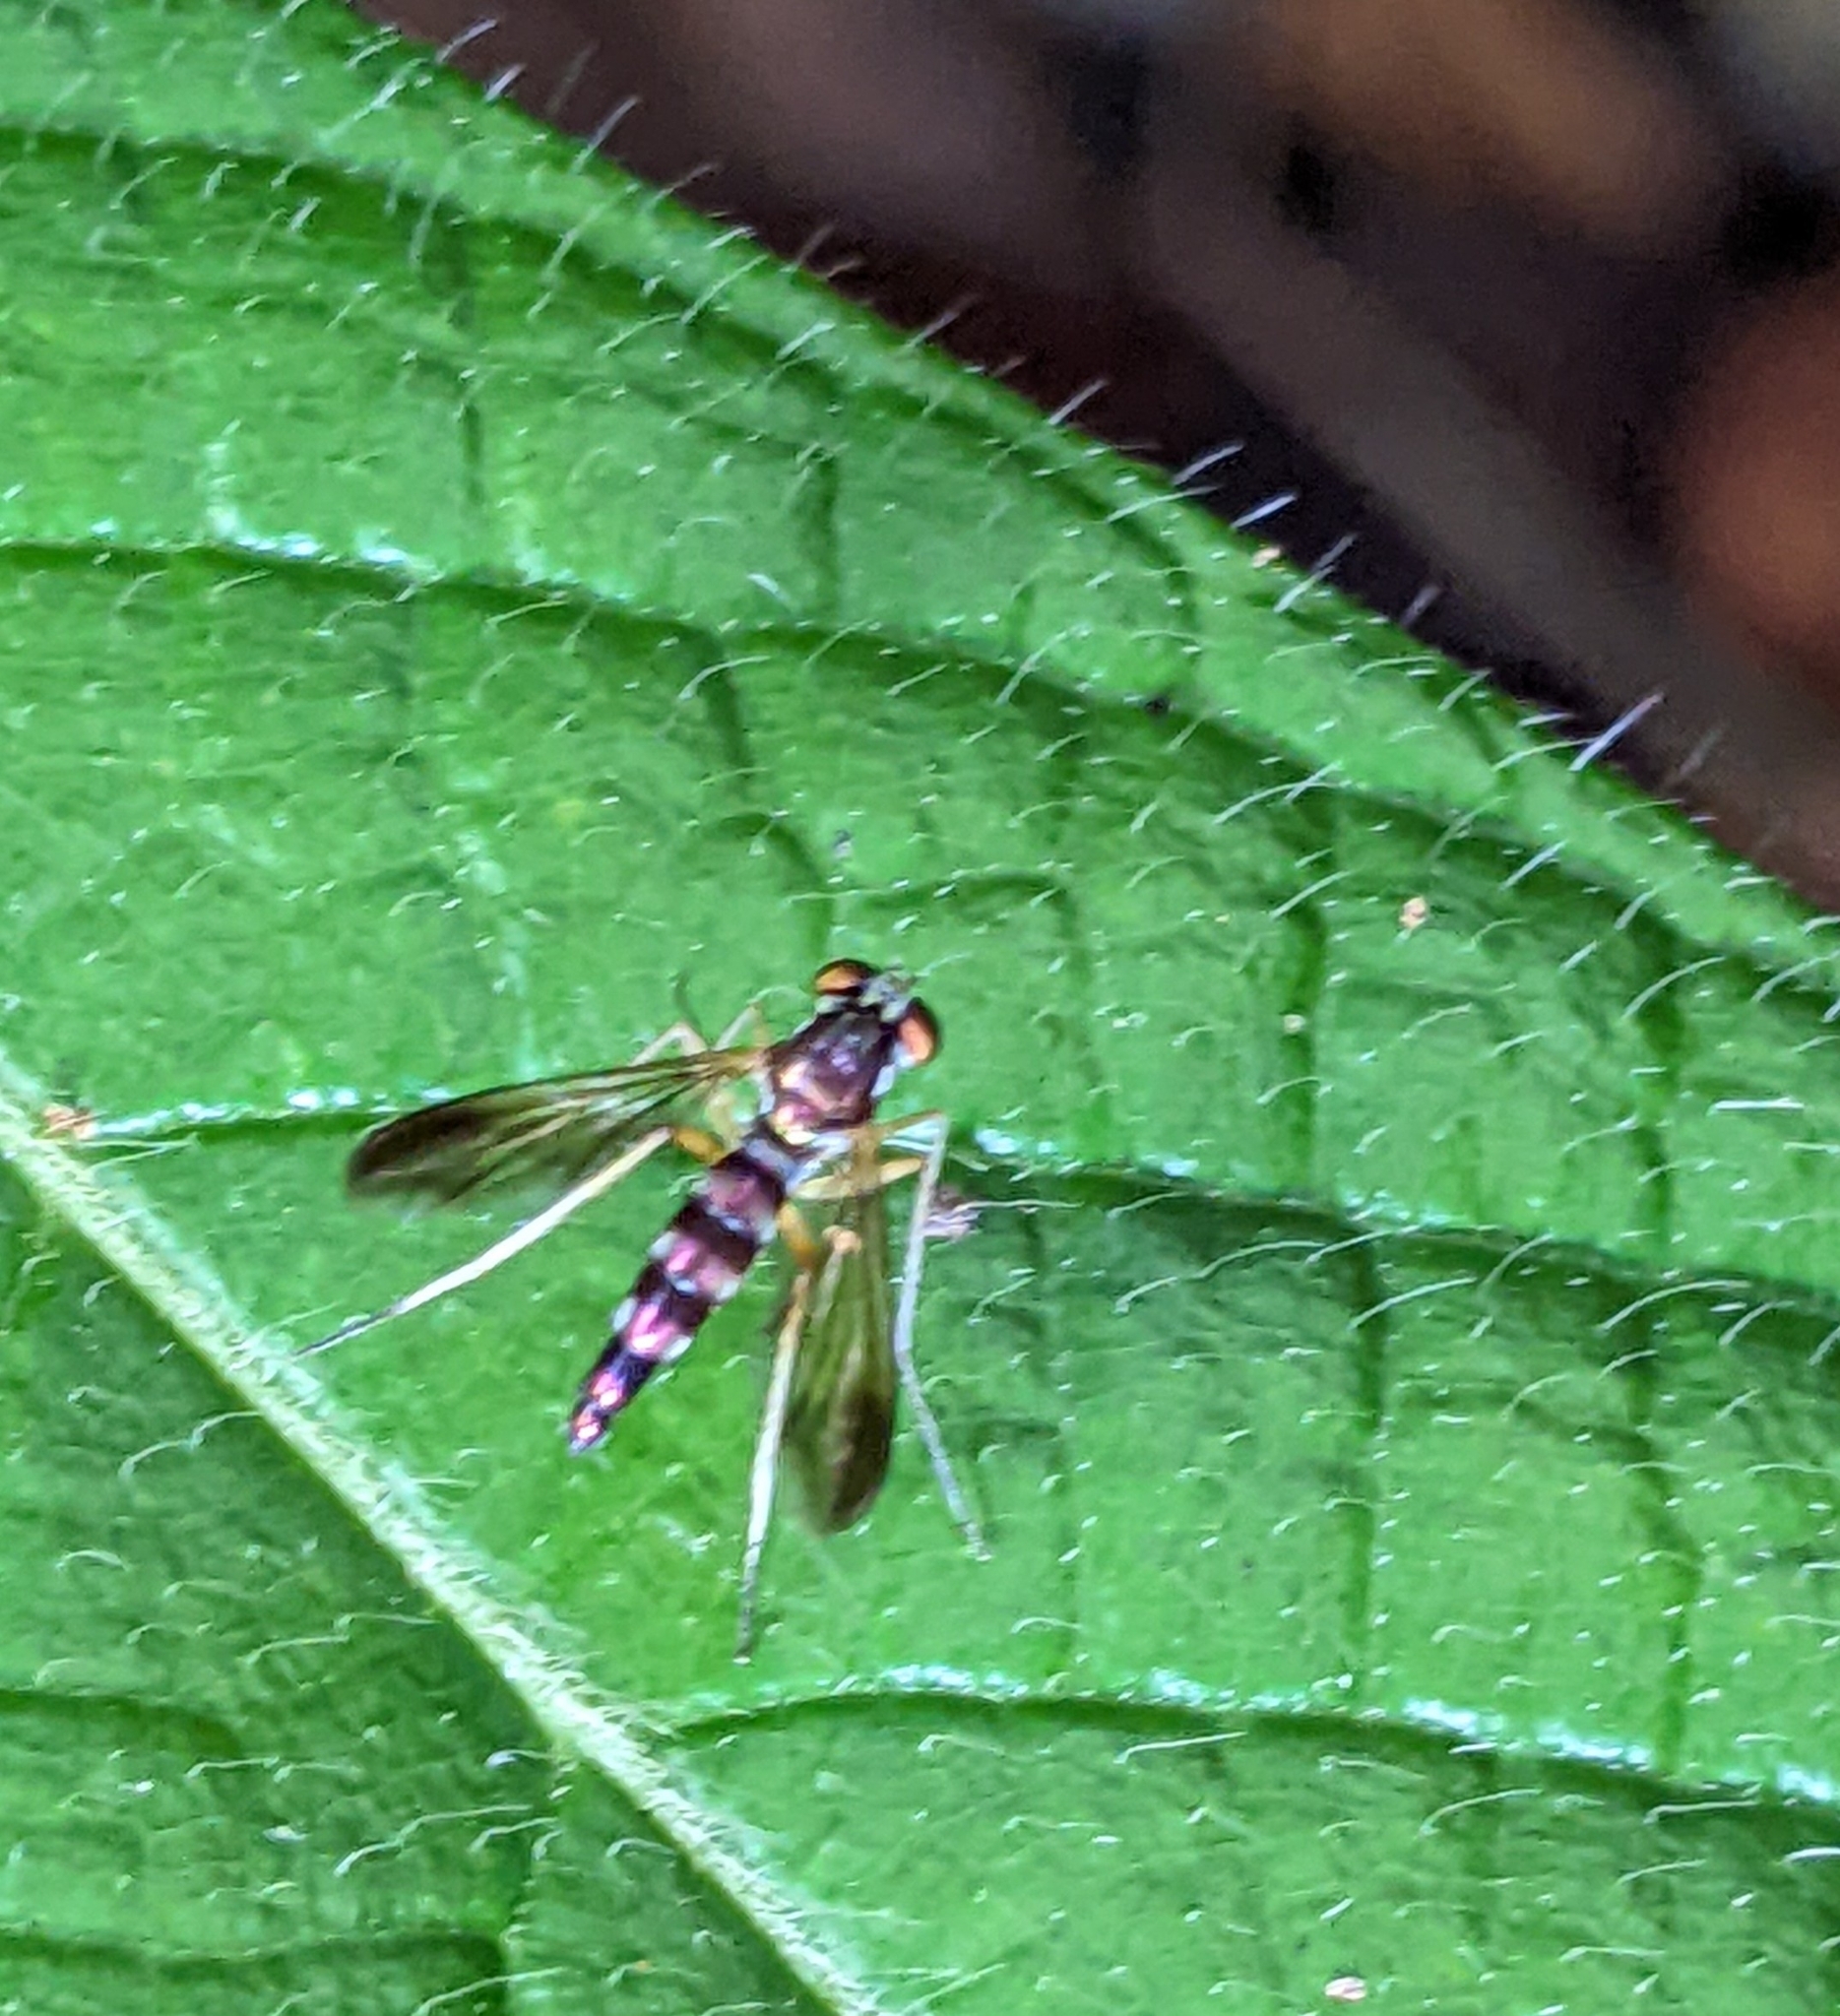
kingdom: Animalia
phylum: Arthropoda
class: Insecta
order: Diptera
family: Dolichopodidae
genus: Plagiozopelma
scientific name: Plagiozopelma lichtwardti
